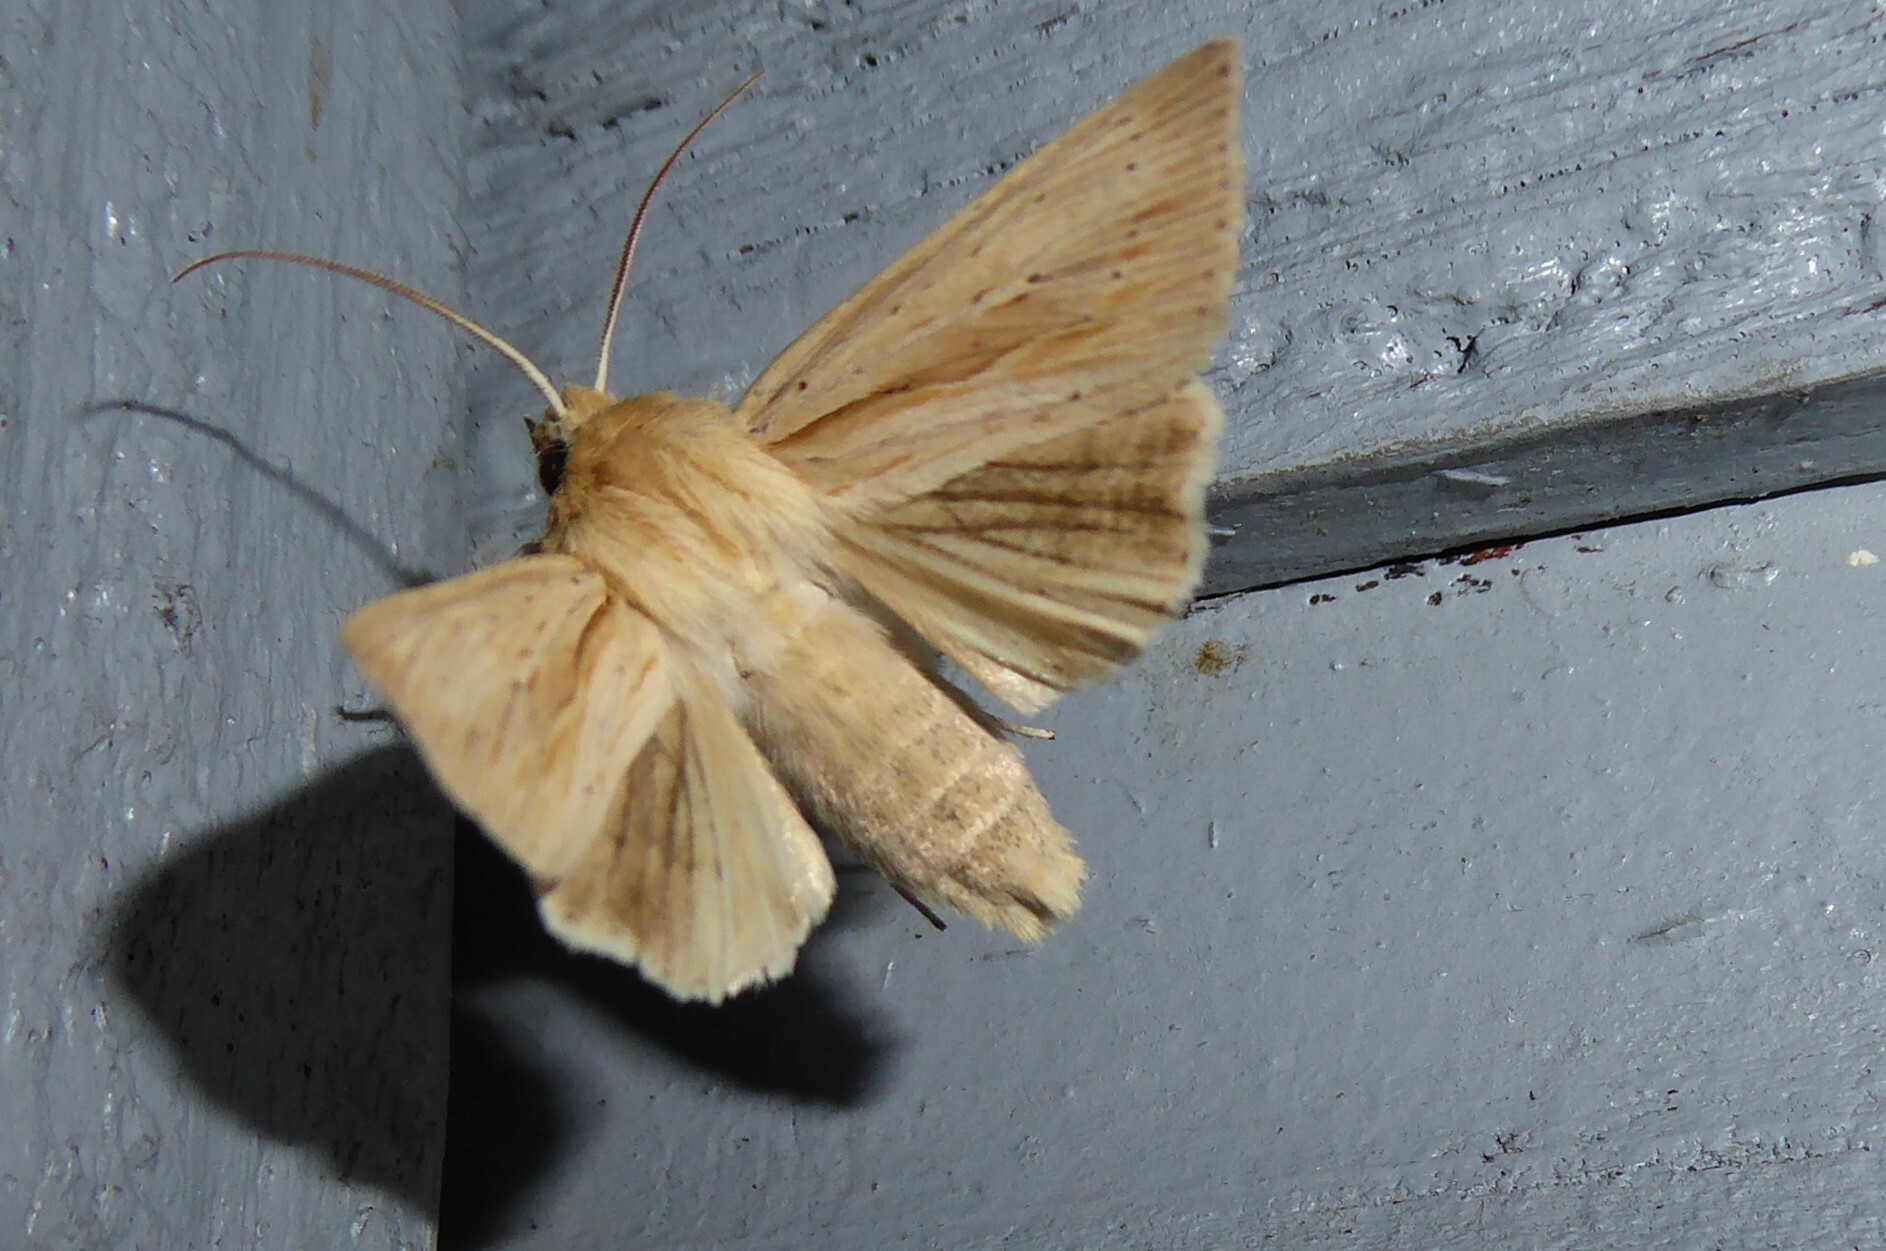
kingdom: Animalia
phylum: Arthropoda
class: Insecta
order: Lepidoptera
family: Noctuidae
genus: Ichneutica
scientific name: Ichneutica semivittata
